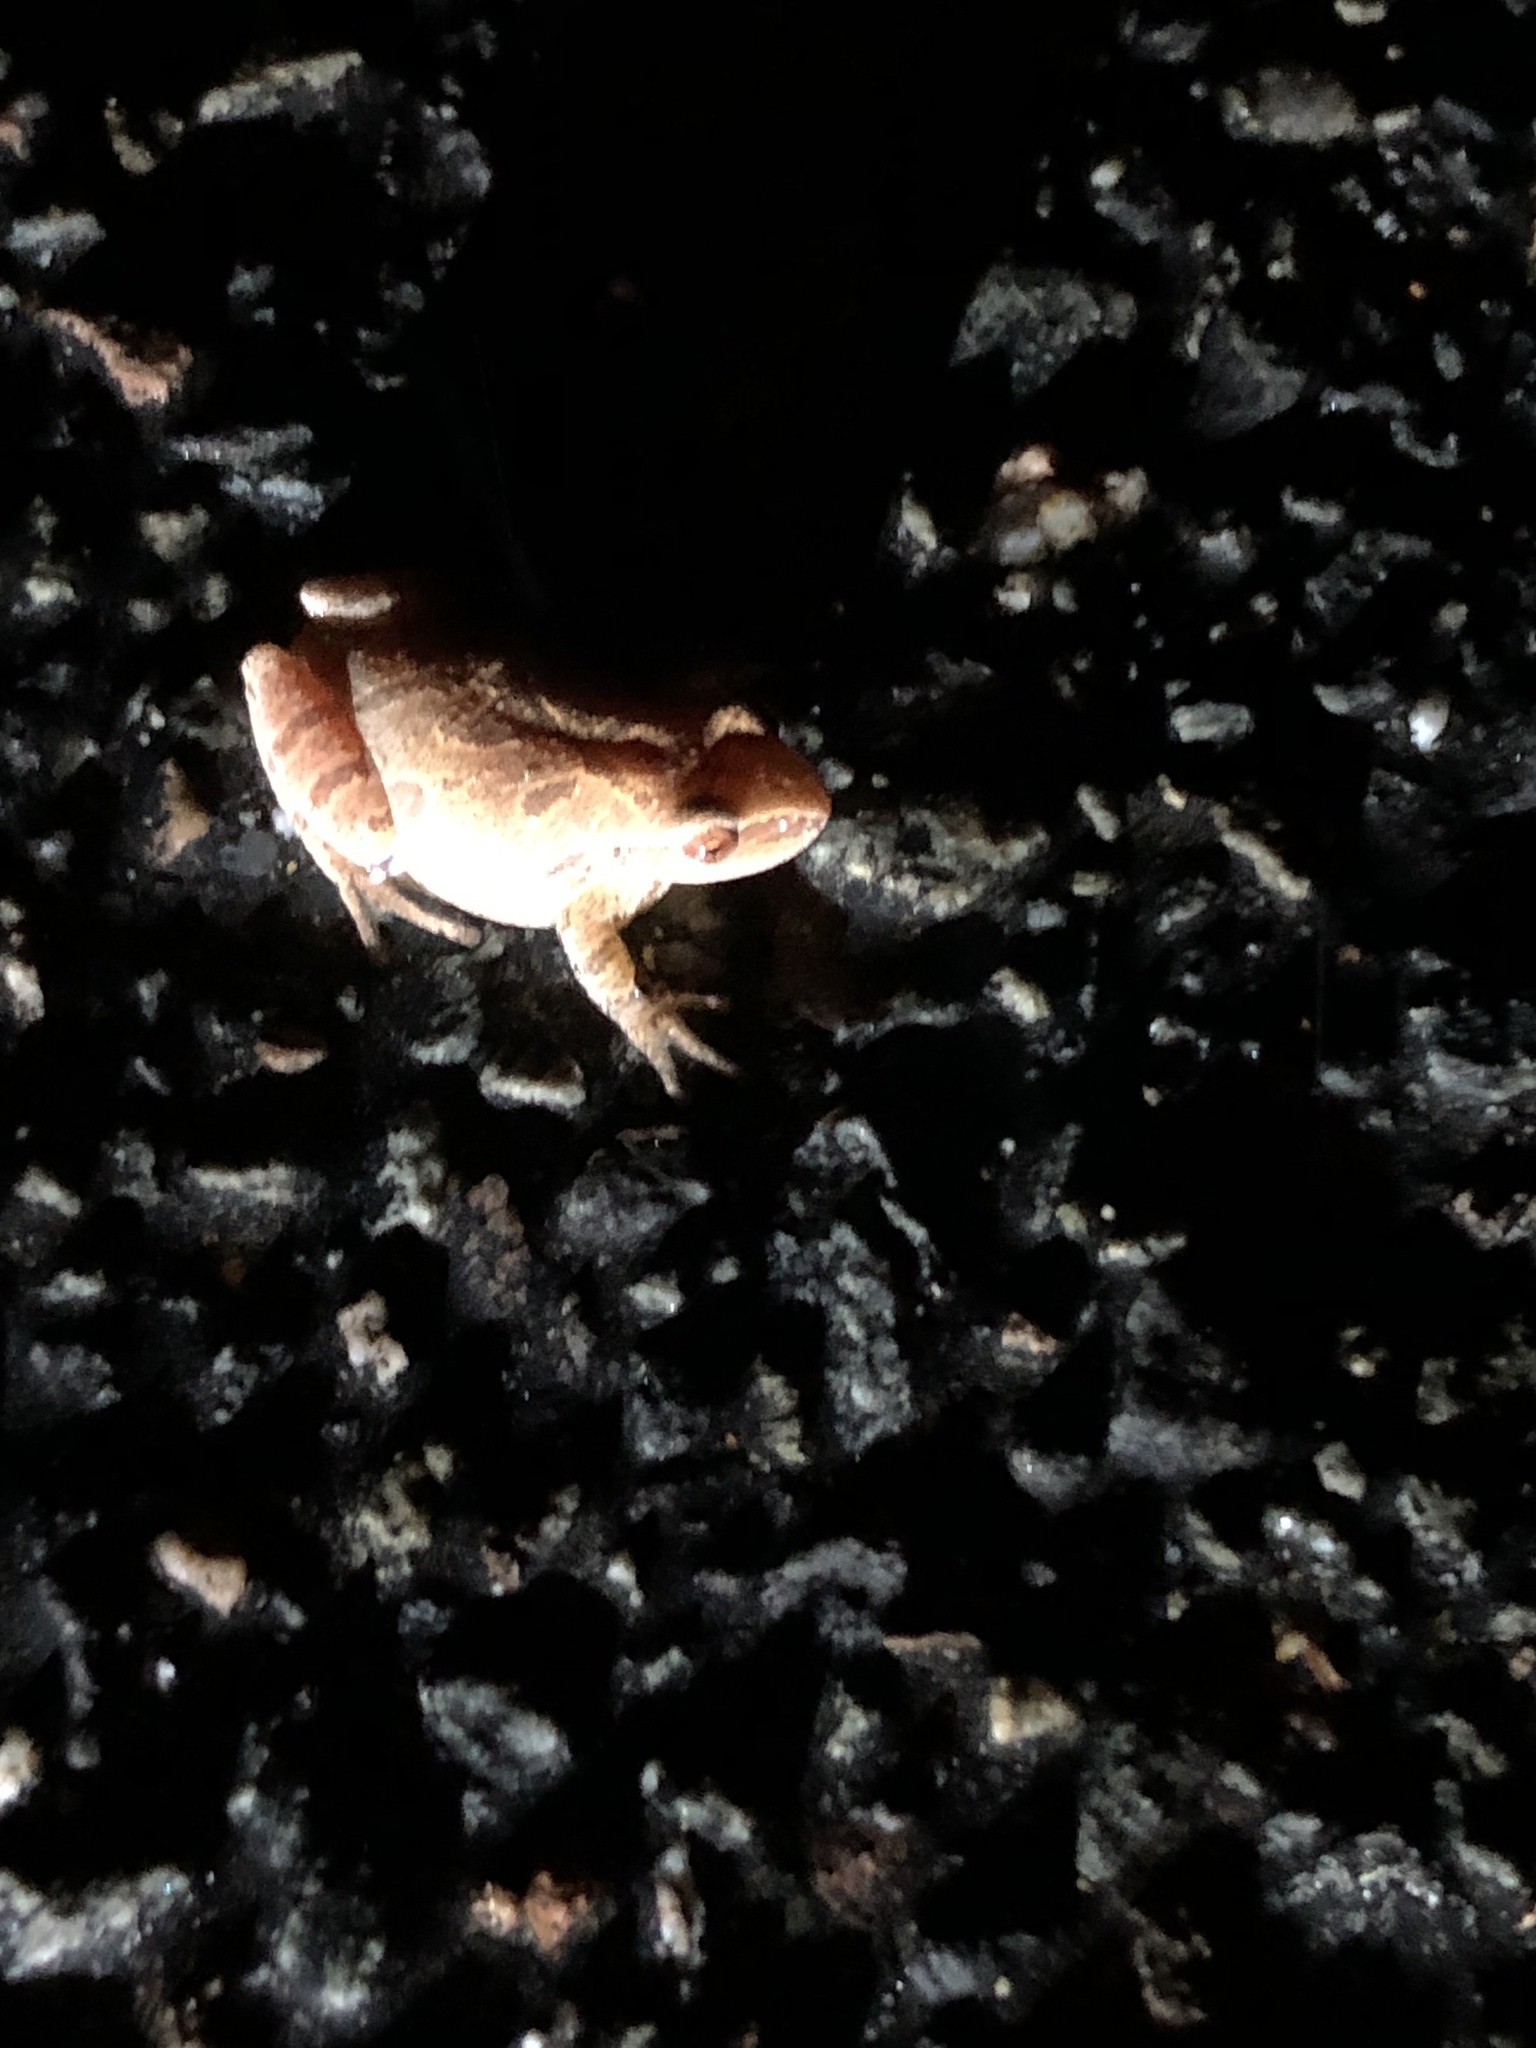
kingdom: Animalia
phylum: Chordata
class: Amphibia
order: Anura
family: Hylidae
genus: Pseudacris
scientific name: Pseudacris crucifer
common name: Spring peeper
